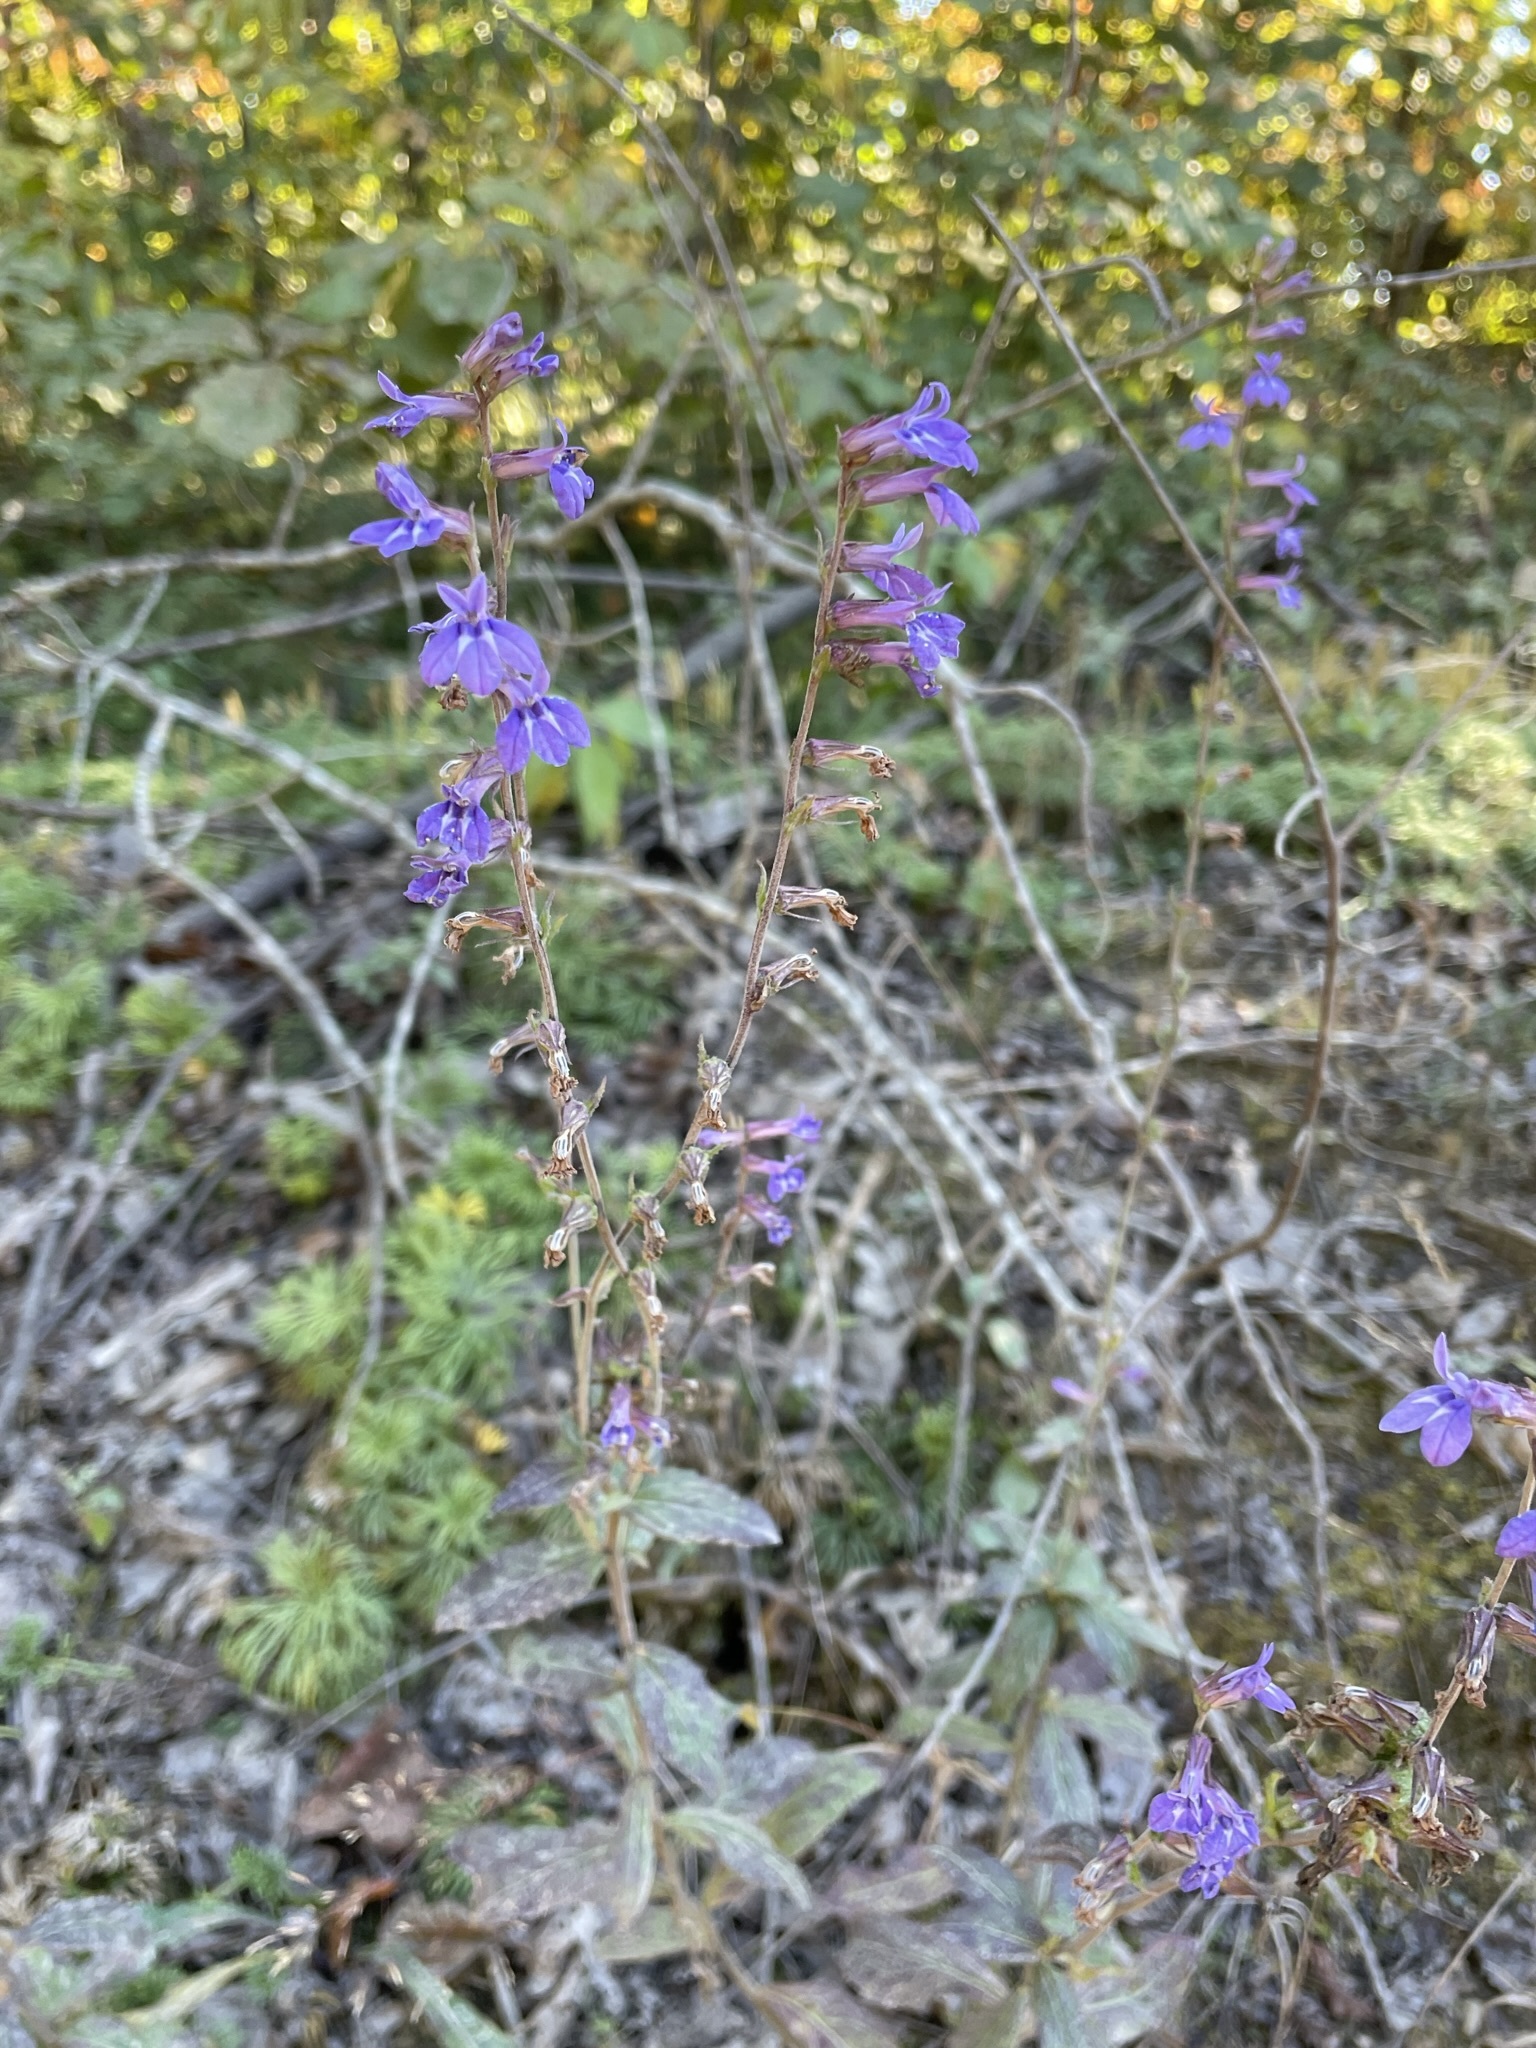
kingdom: Plantae
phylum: Tracheophyta
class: Magnoliopsida
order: Asterales
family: Campanulaceae
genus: Lobelia
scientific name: Lobelia puberula
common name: Purple dewdrop
